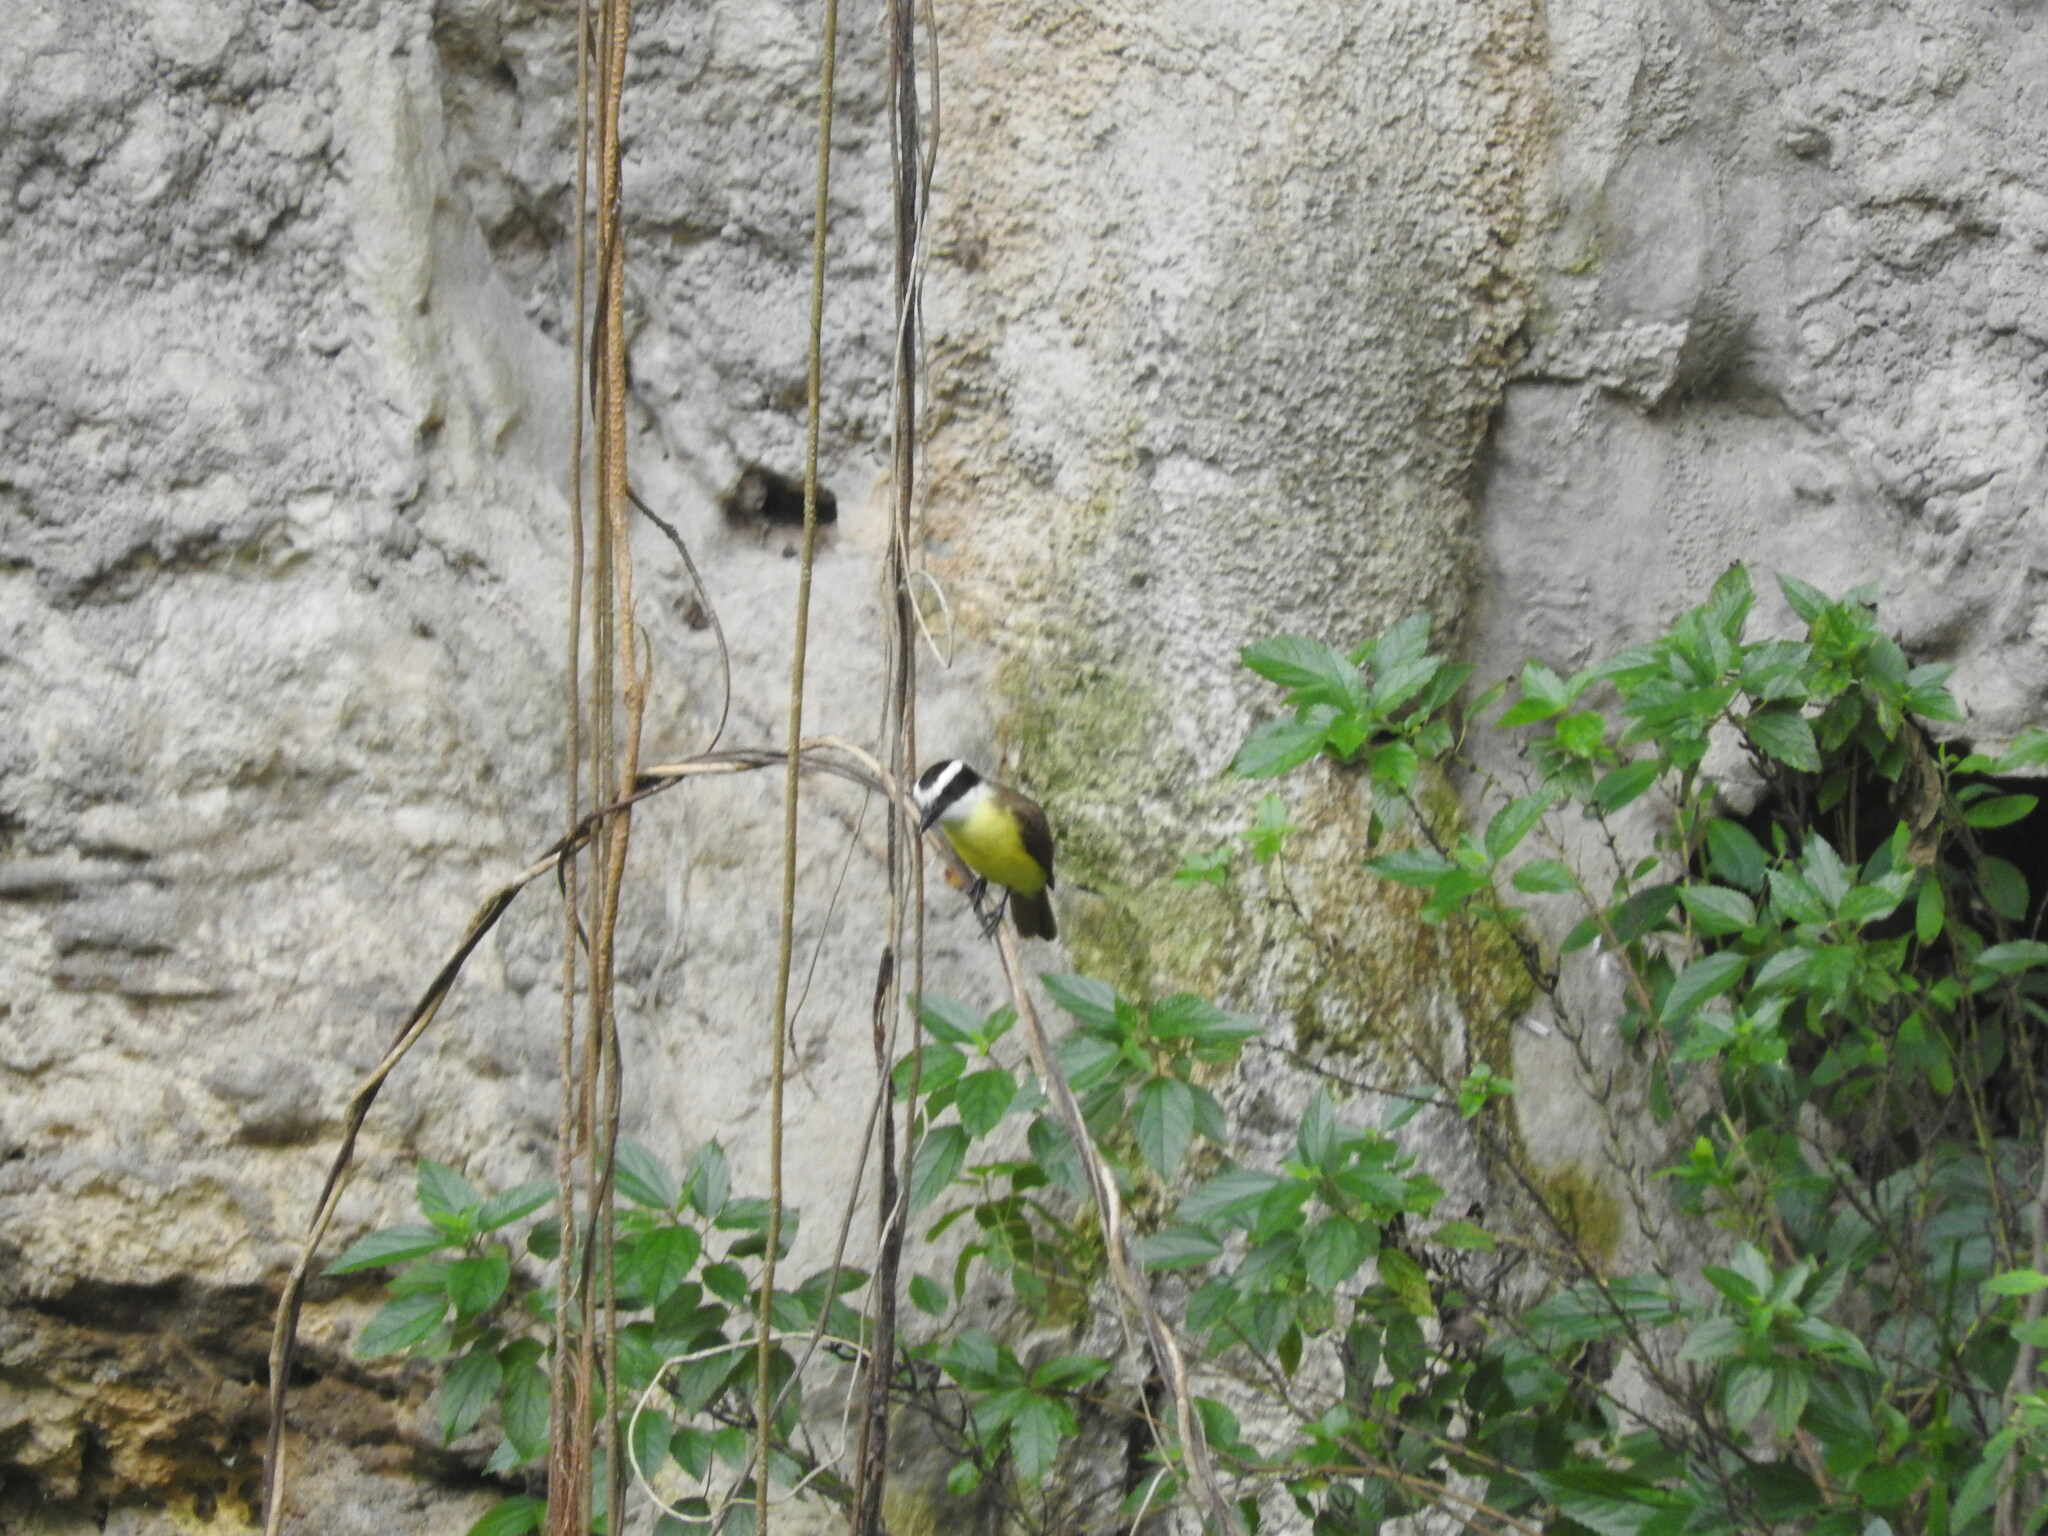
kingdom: Animalia
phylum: Chordata
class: Aves
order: Passeriformes
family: Tyrannidae
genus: Pitangus
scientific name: Pitangus sulphuratus
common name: Great kiskadee
